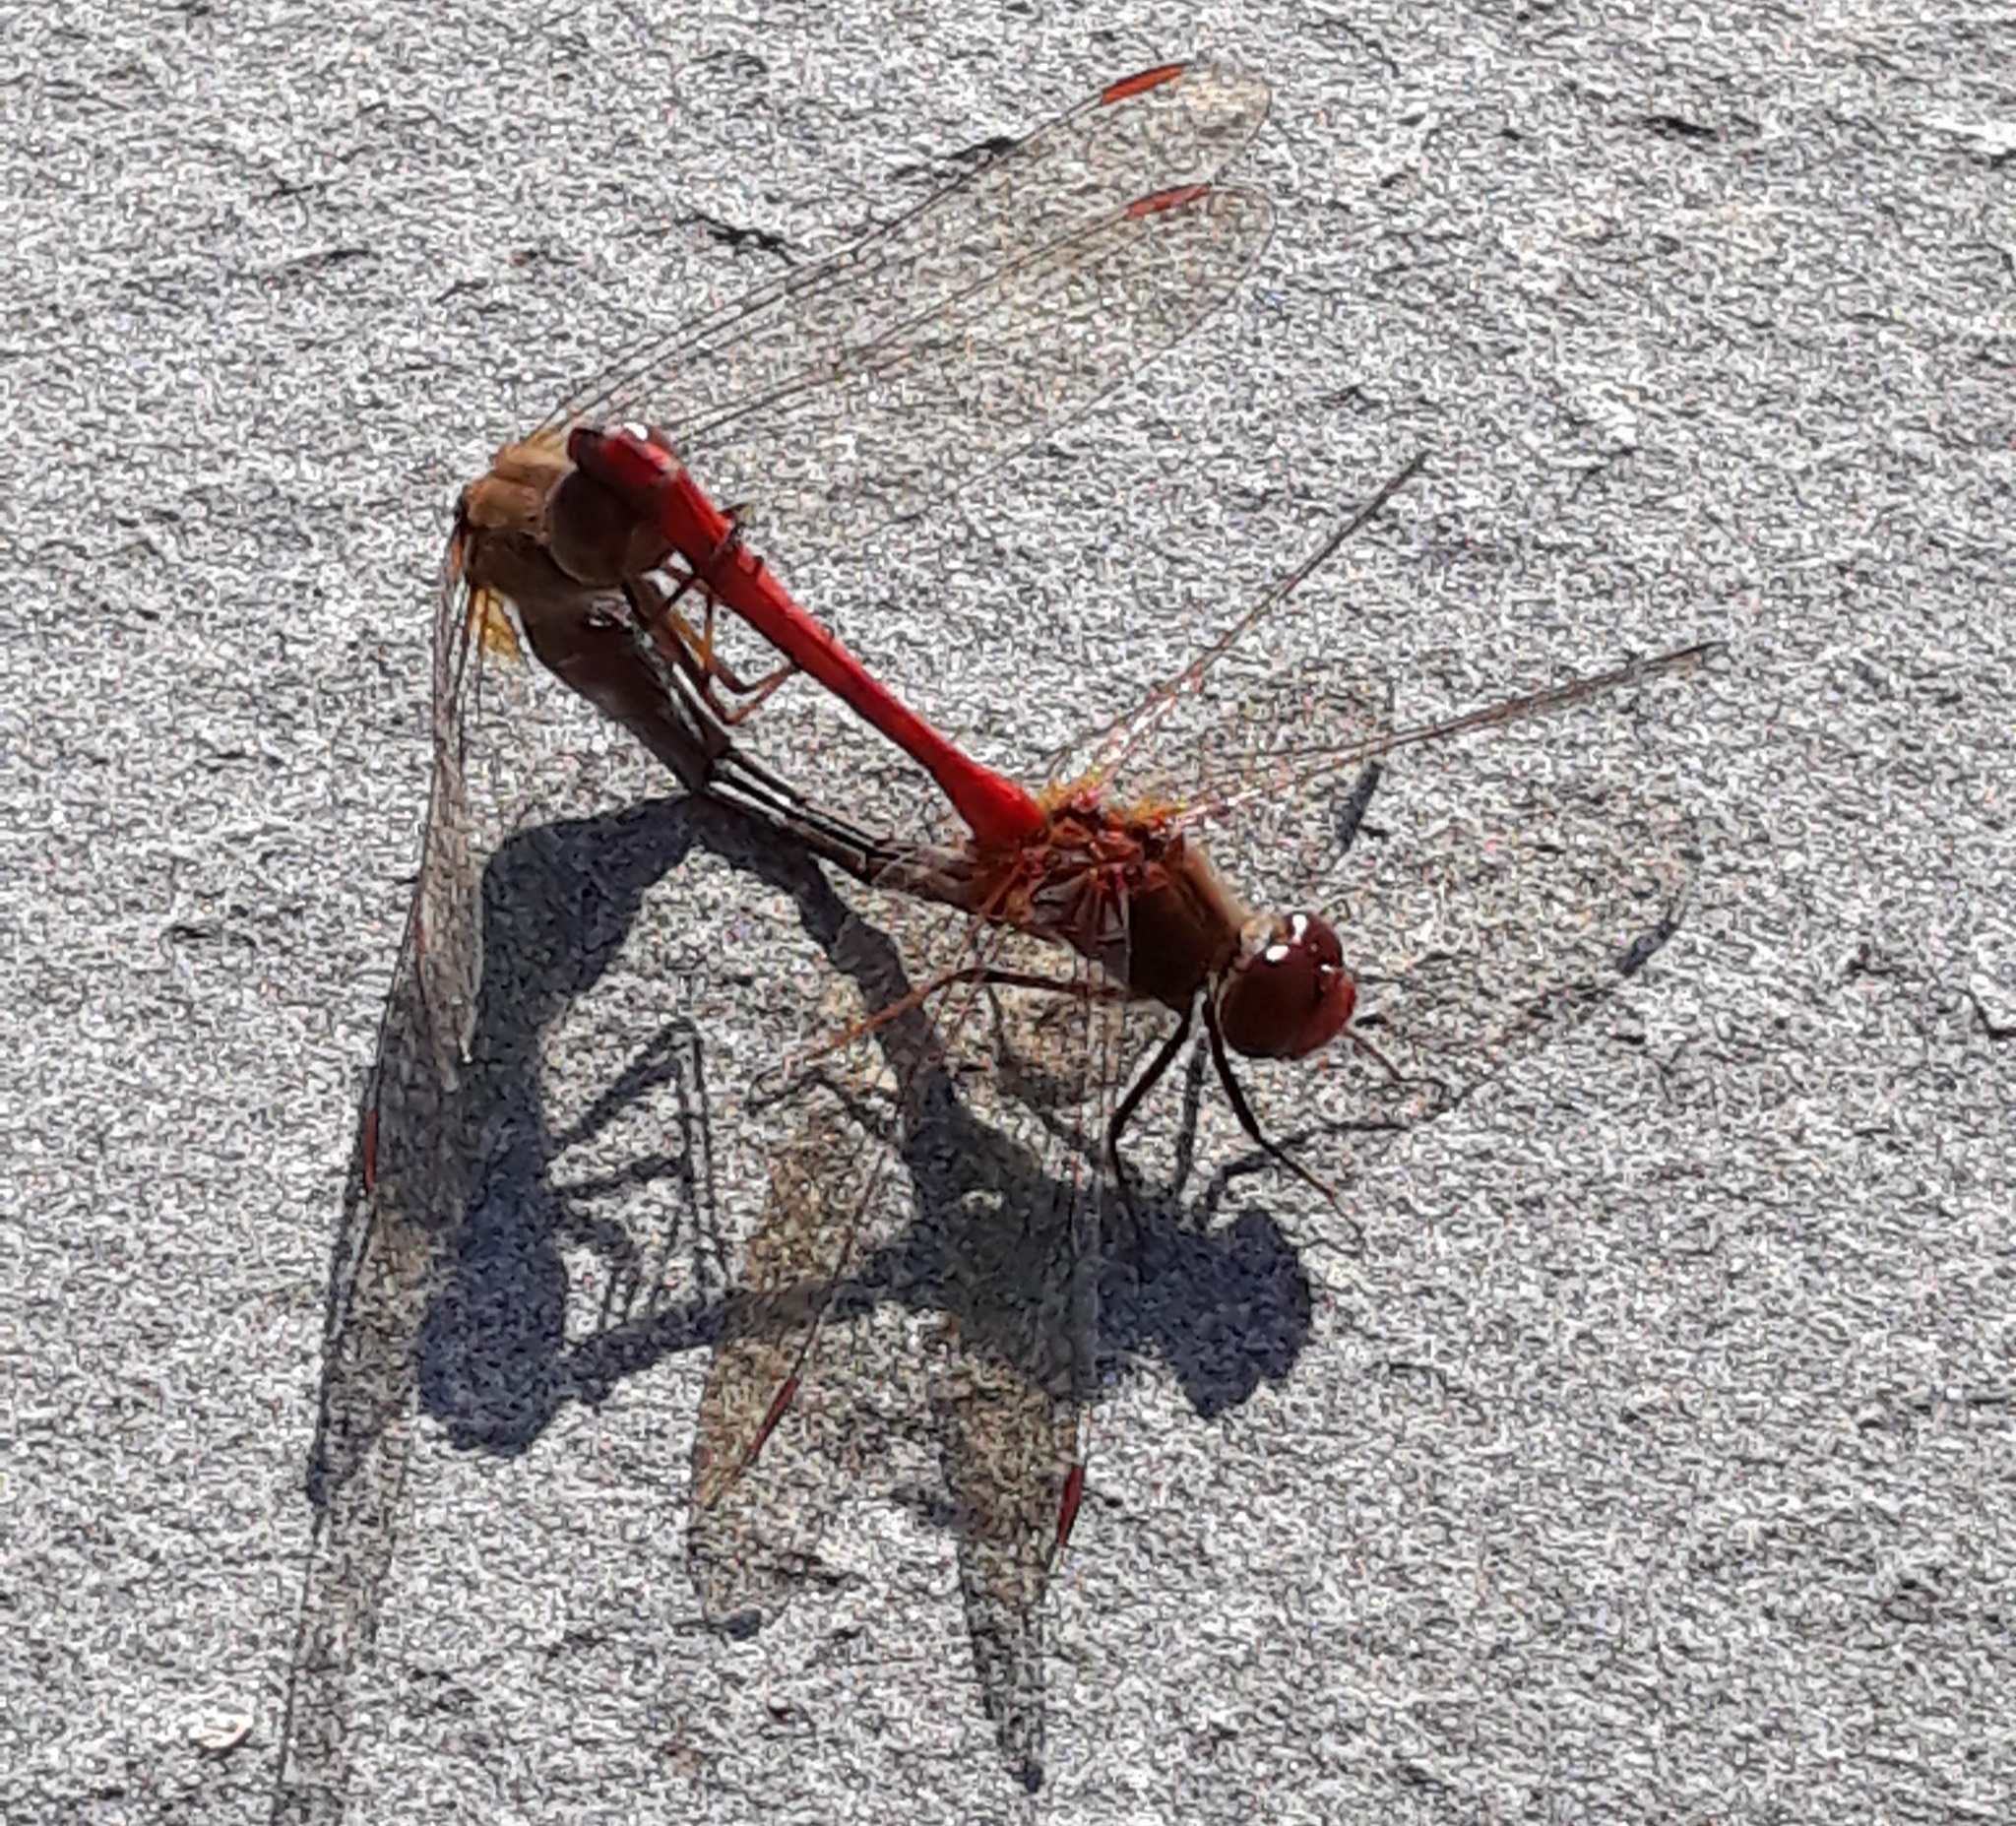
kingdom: Animalia
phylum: Arthropoda
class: Insecta
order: Odonata
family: Libellulidae
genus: Sympetrum
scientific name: Sympetrum vicinum
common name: Autumn meadowhawk
